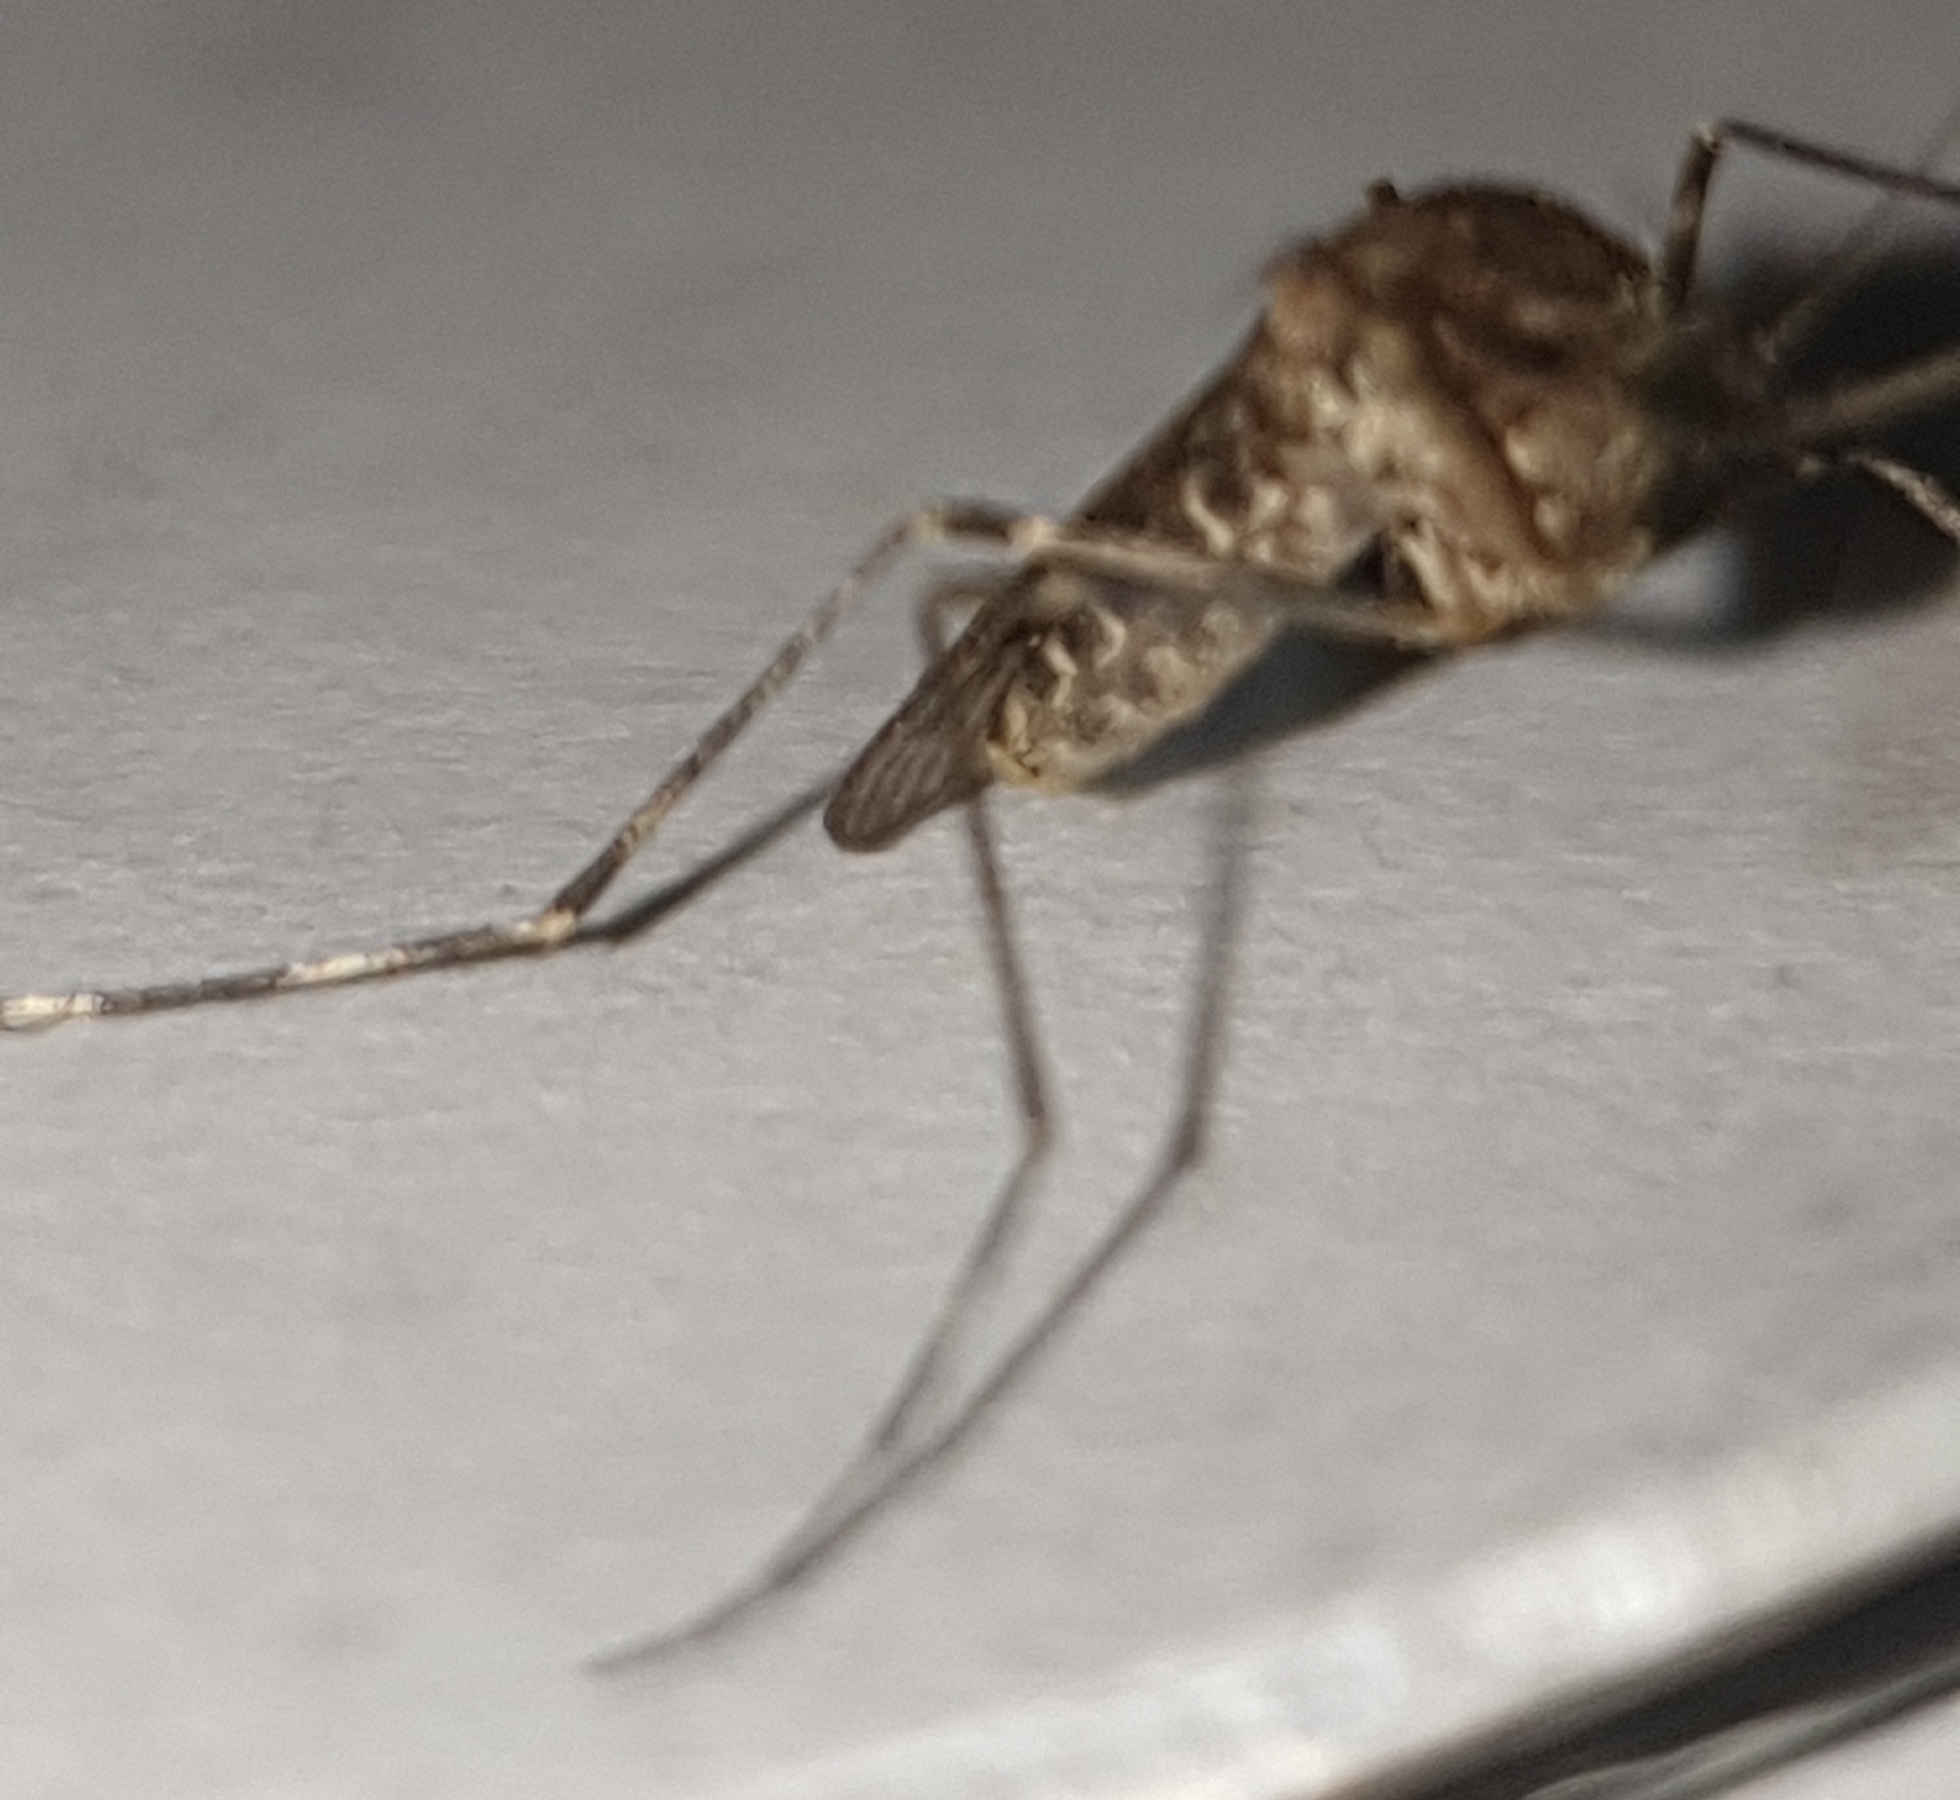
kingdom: Animalia
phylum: Arthropoda
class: Insecta
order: Diptera
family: Culicidae
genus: Culiseta
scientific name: Culiseta annulata
